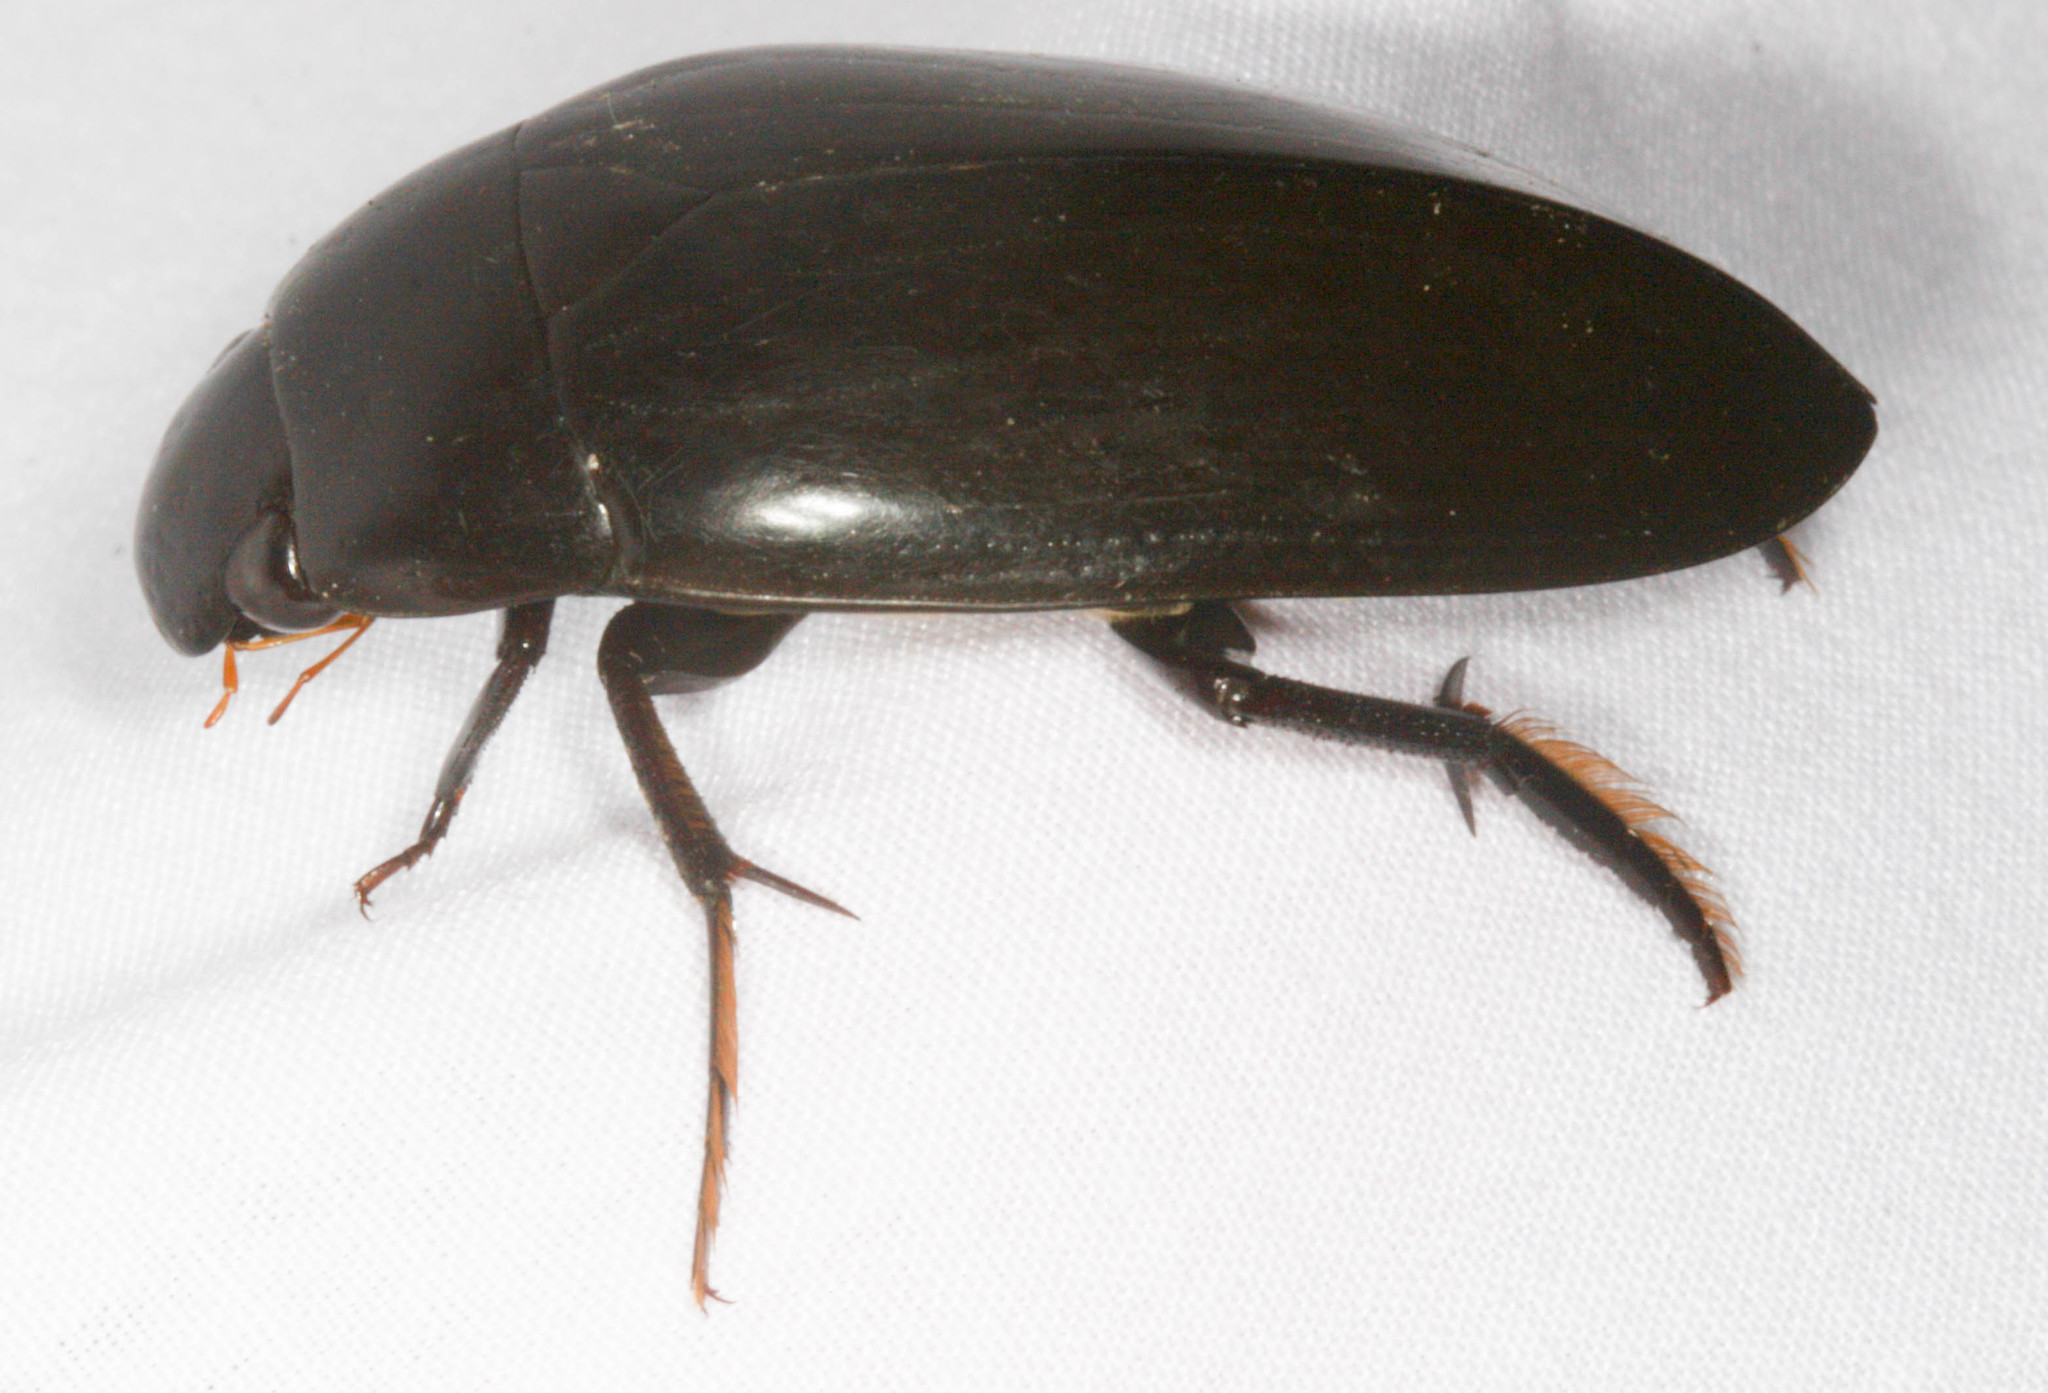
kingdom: Animalia
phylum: Arthropoda
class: Insecta
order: Coleoptera
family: Hydrophilidae
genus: Hydrophilus
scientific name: Hydrophilus triangularis
